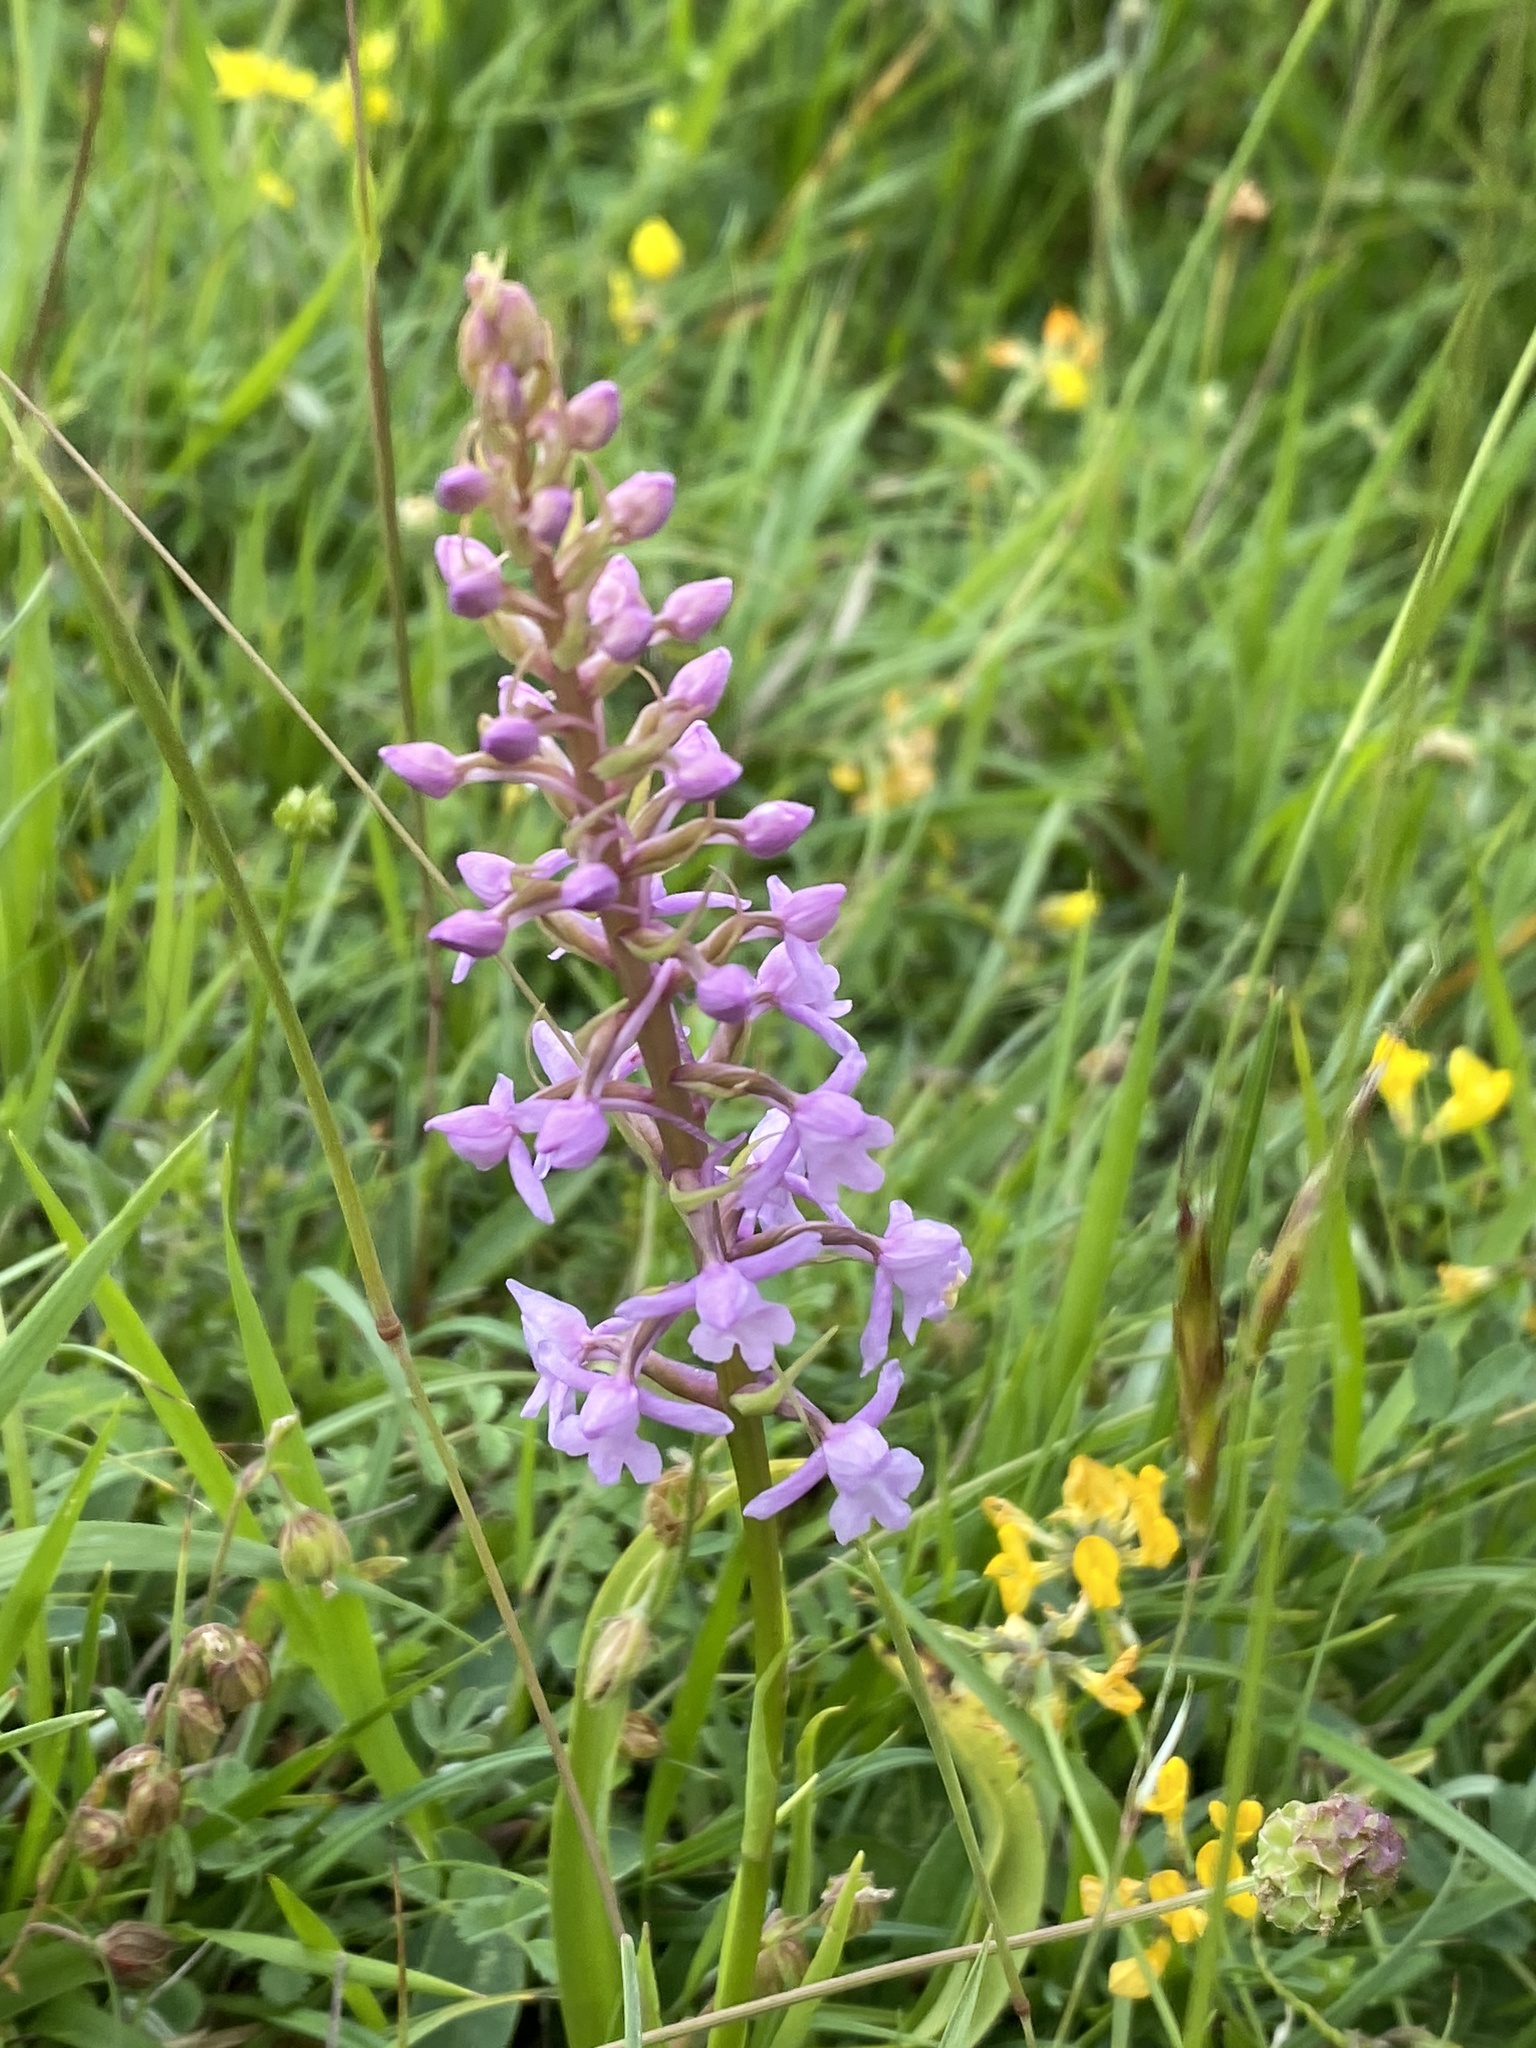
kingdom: Plantae
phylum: Tracheophyta
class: Liliopsida
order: Asparagales
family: Orchidaceae
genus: Gymnadenia
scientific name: Gymnadenia conopsea
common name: Fragrant orchid
